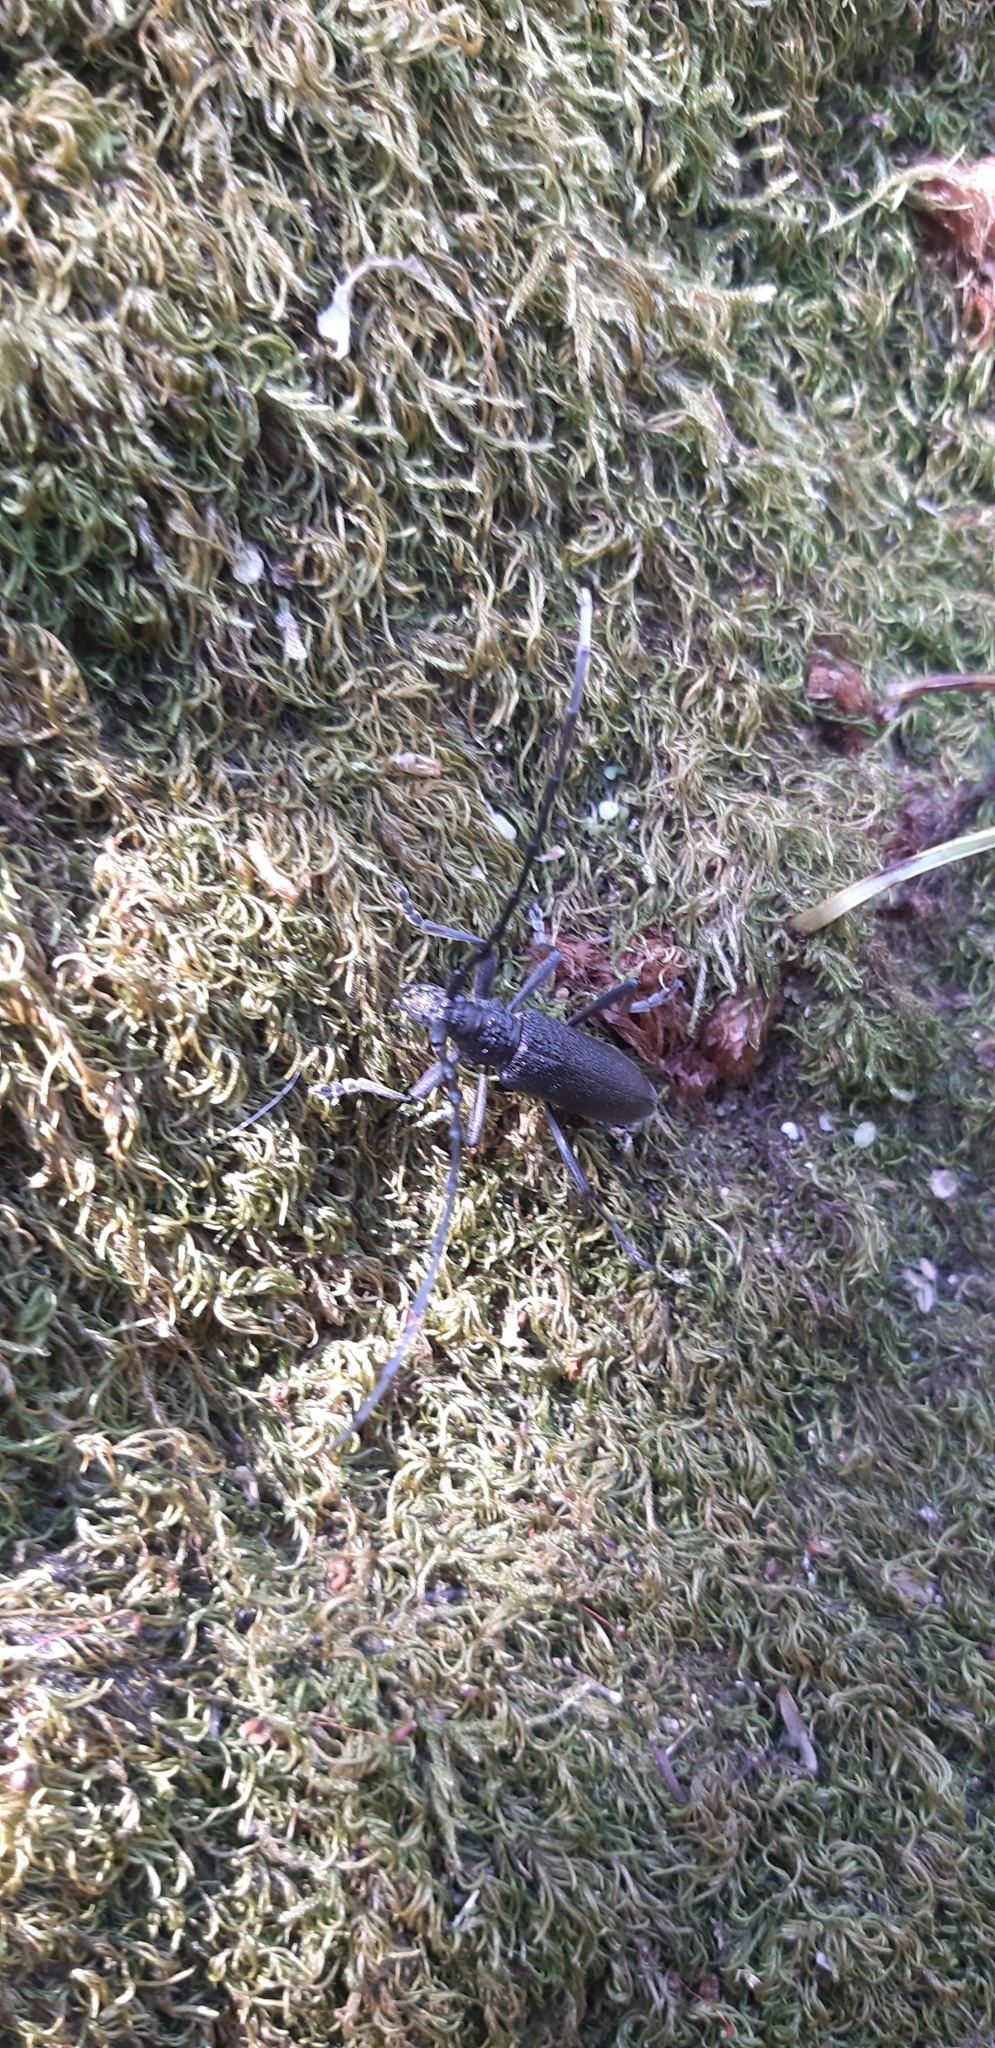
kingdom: Animalia
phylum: Arthropoda
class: Insecta
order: Coleoptera
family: Cerambycidae
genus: Cerambyx
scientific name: Cerambyx scopolii
